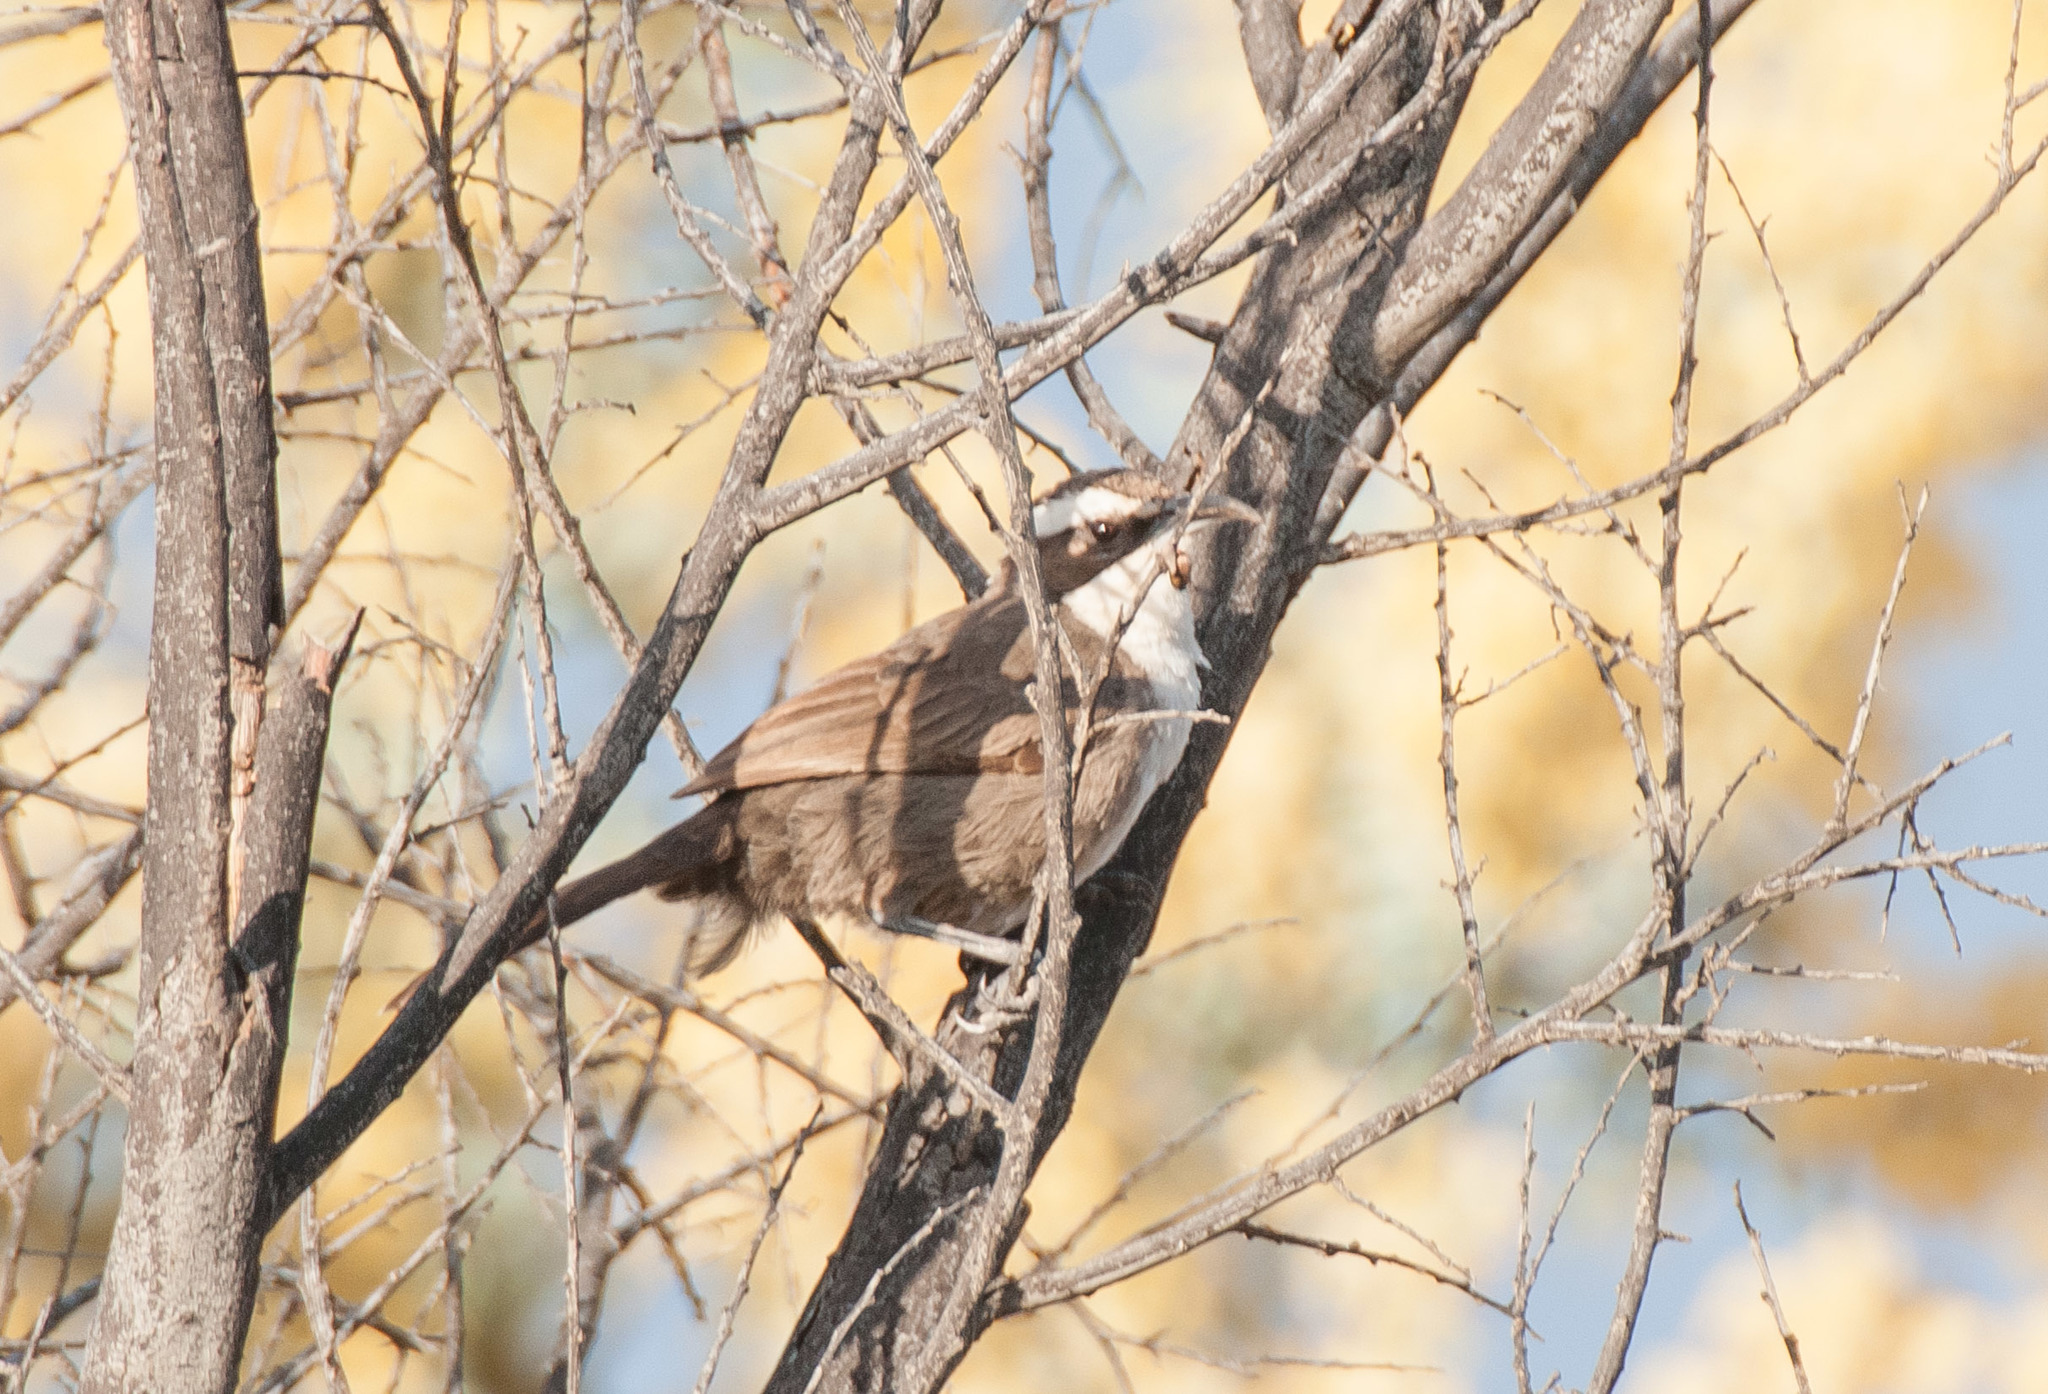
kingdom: Animalia
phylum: Chordata
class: Aves
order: Passeriformes
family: Pomatostomidae
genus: Pomatostomus
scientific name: Pomatostomus superciliosus
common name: White-browed babbler
